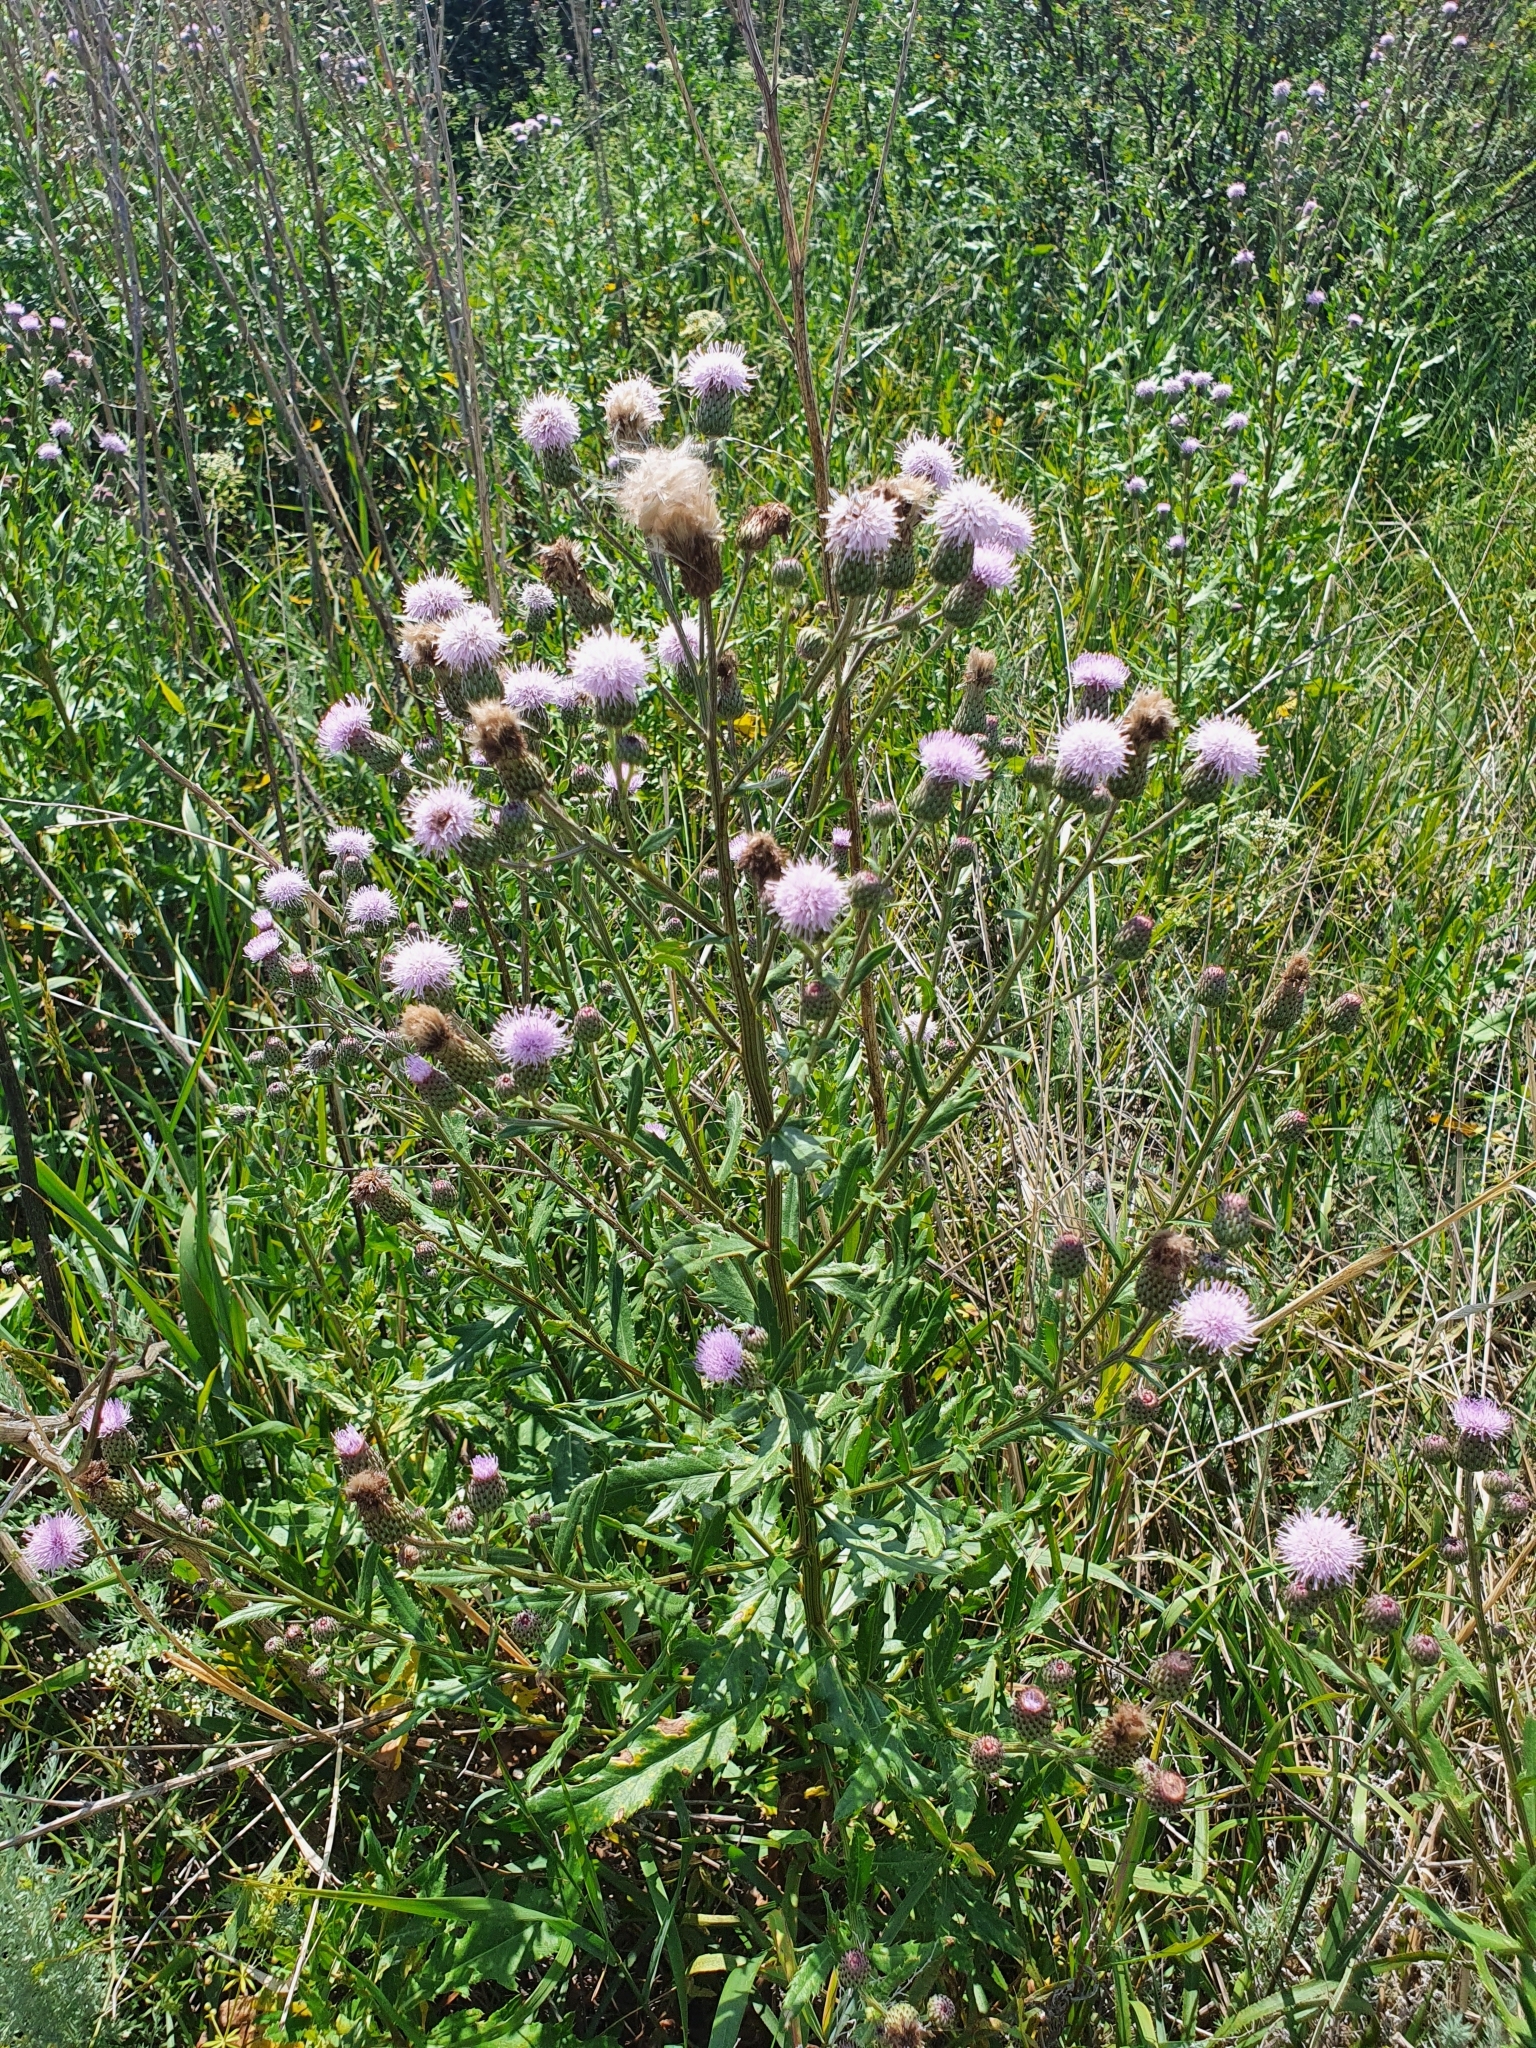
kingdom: Plantae
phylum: Tracheophyta
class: Magnoliopsida
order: Asterales
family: Asteraceae
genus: Cirsium
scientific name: Cirsium arvense
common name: Creeping thistle
